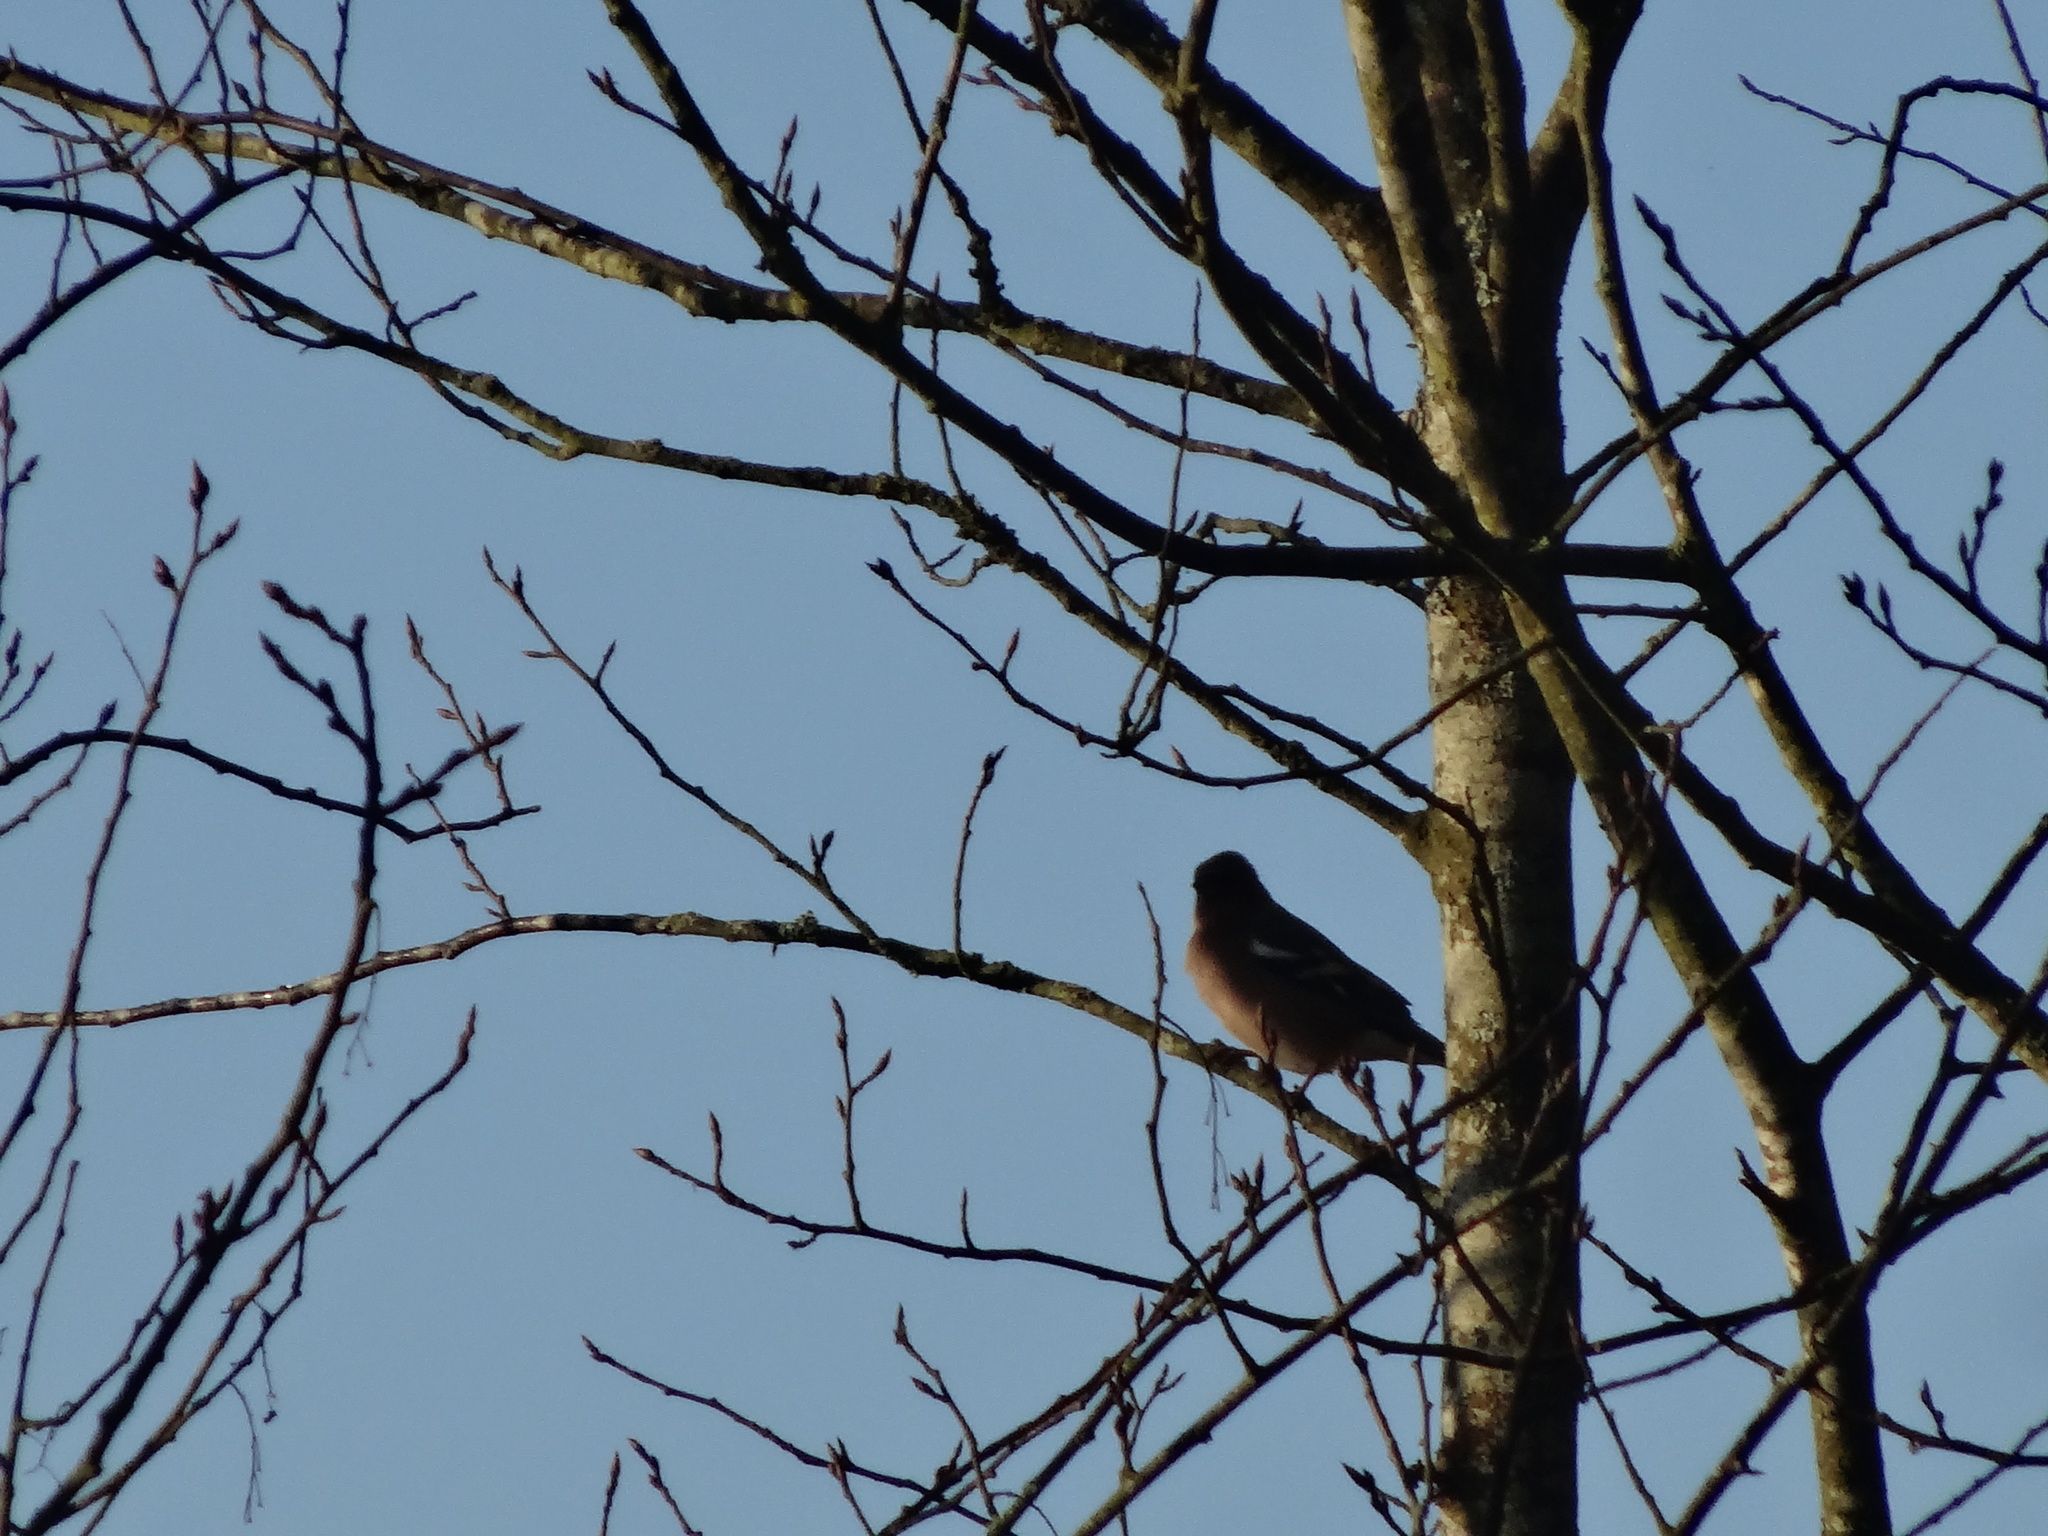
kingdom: Animalia
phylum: Chordata
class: Aves
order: Passeriformes
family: Fringillidae
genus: Fringilla
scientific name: Fringilla coelebs
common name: Common chaffinch
